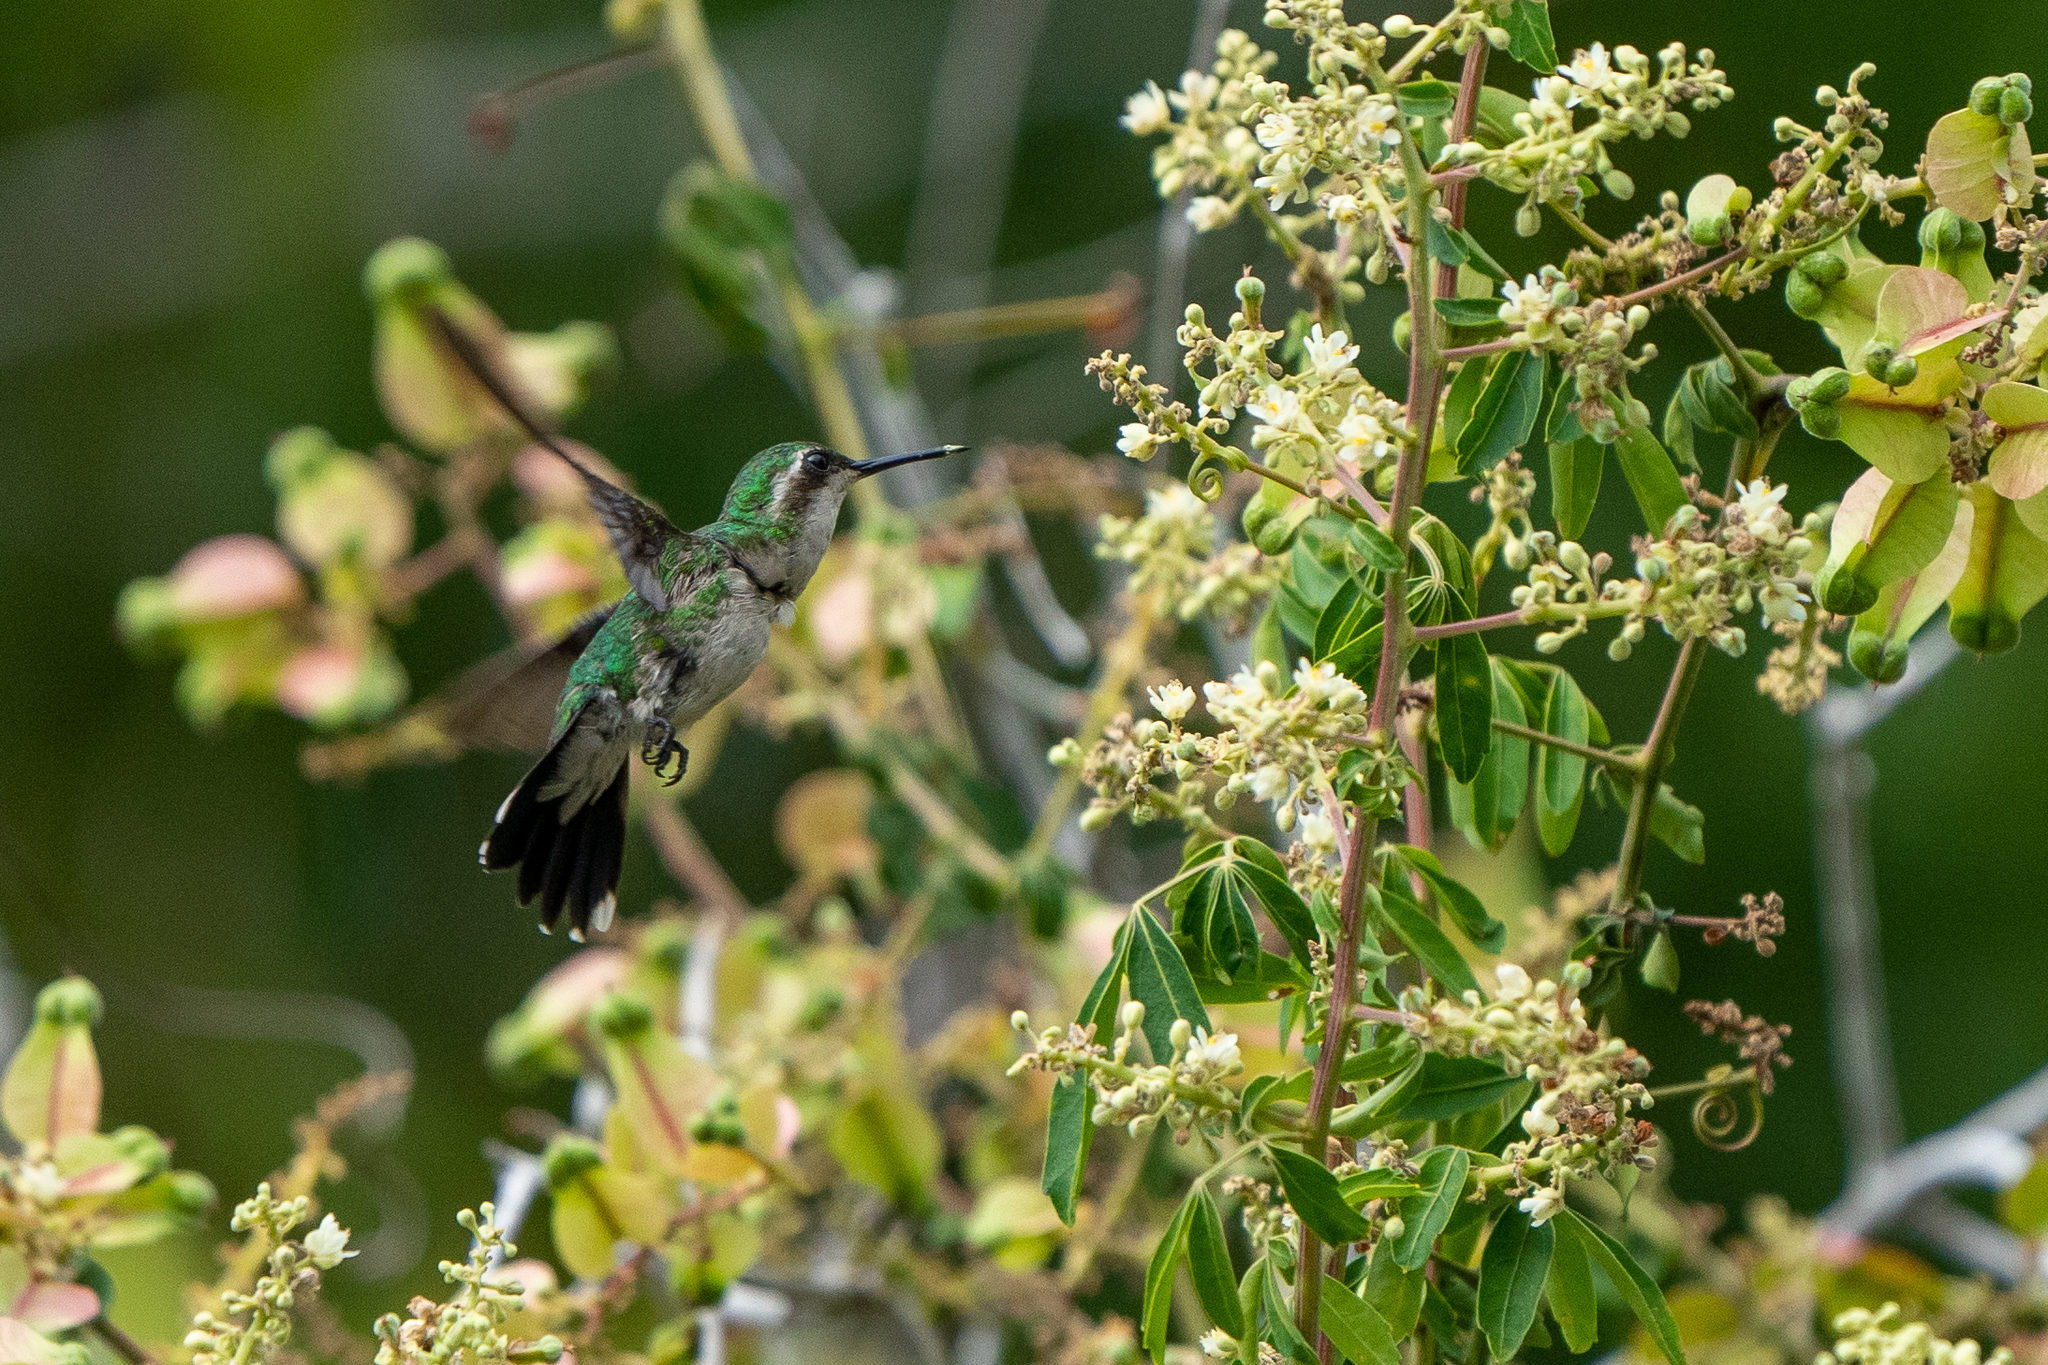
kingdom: Animalia
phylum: Chordata
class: Aves
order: Apodiformes
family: Trochilidae
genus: Chlorostilbon
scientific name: Chlorostilbon assimilis
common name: Garden emerald
